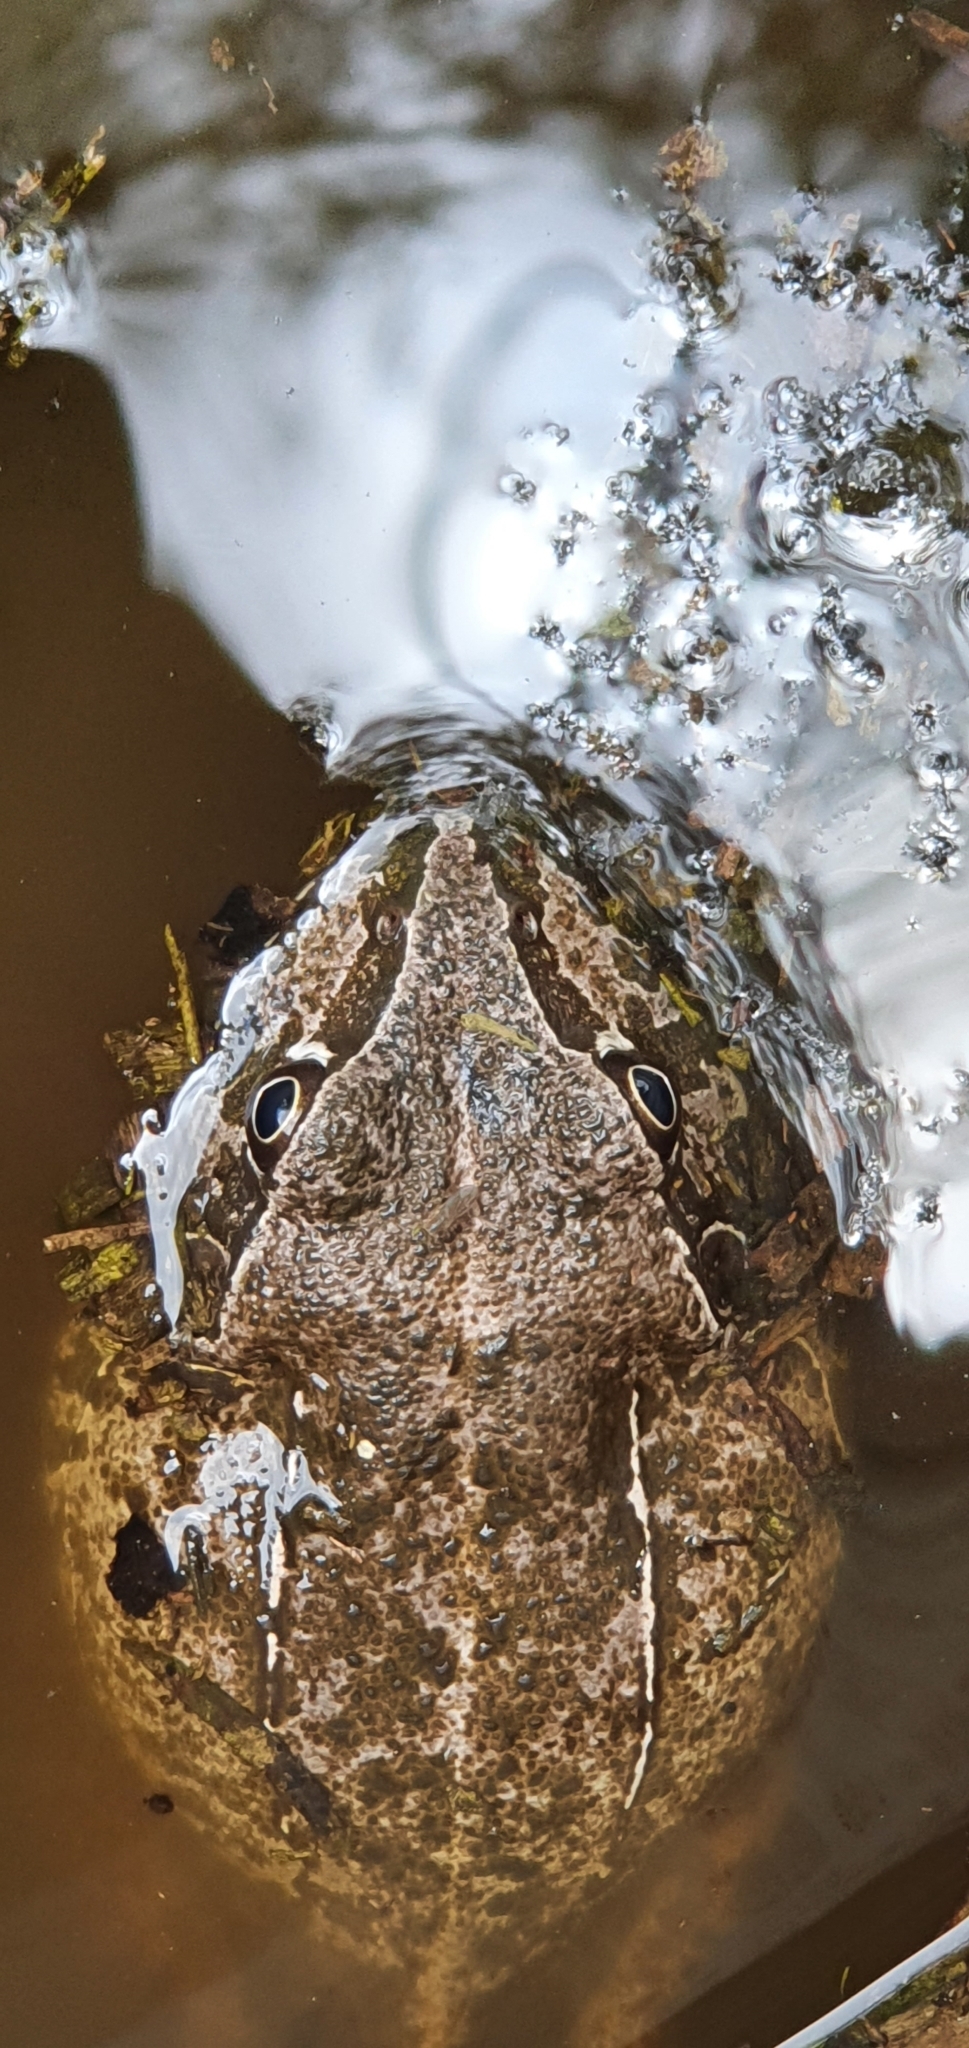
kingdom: Animalia
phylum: Chordata
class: Amphibia
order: Anura
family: Pelodryadidae
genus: Ranoidea
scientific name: Ranoidea novaehollandiae
